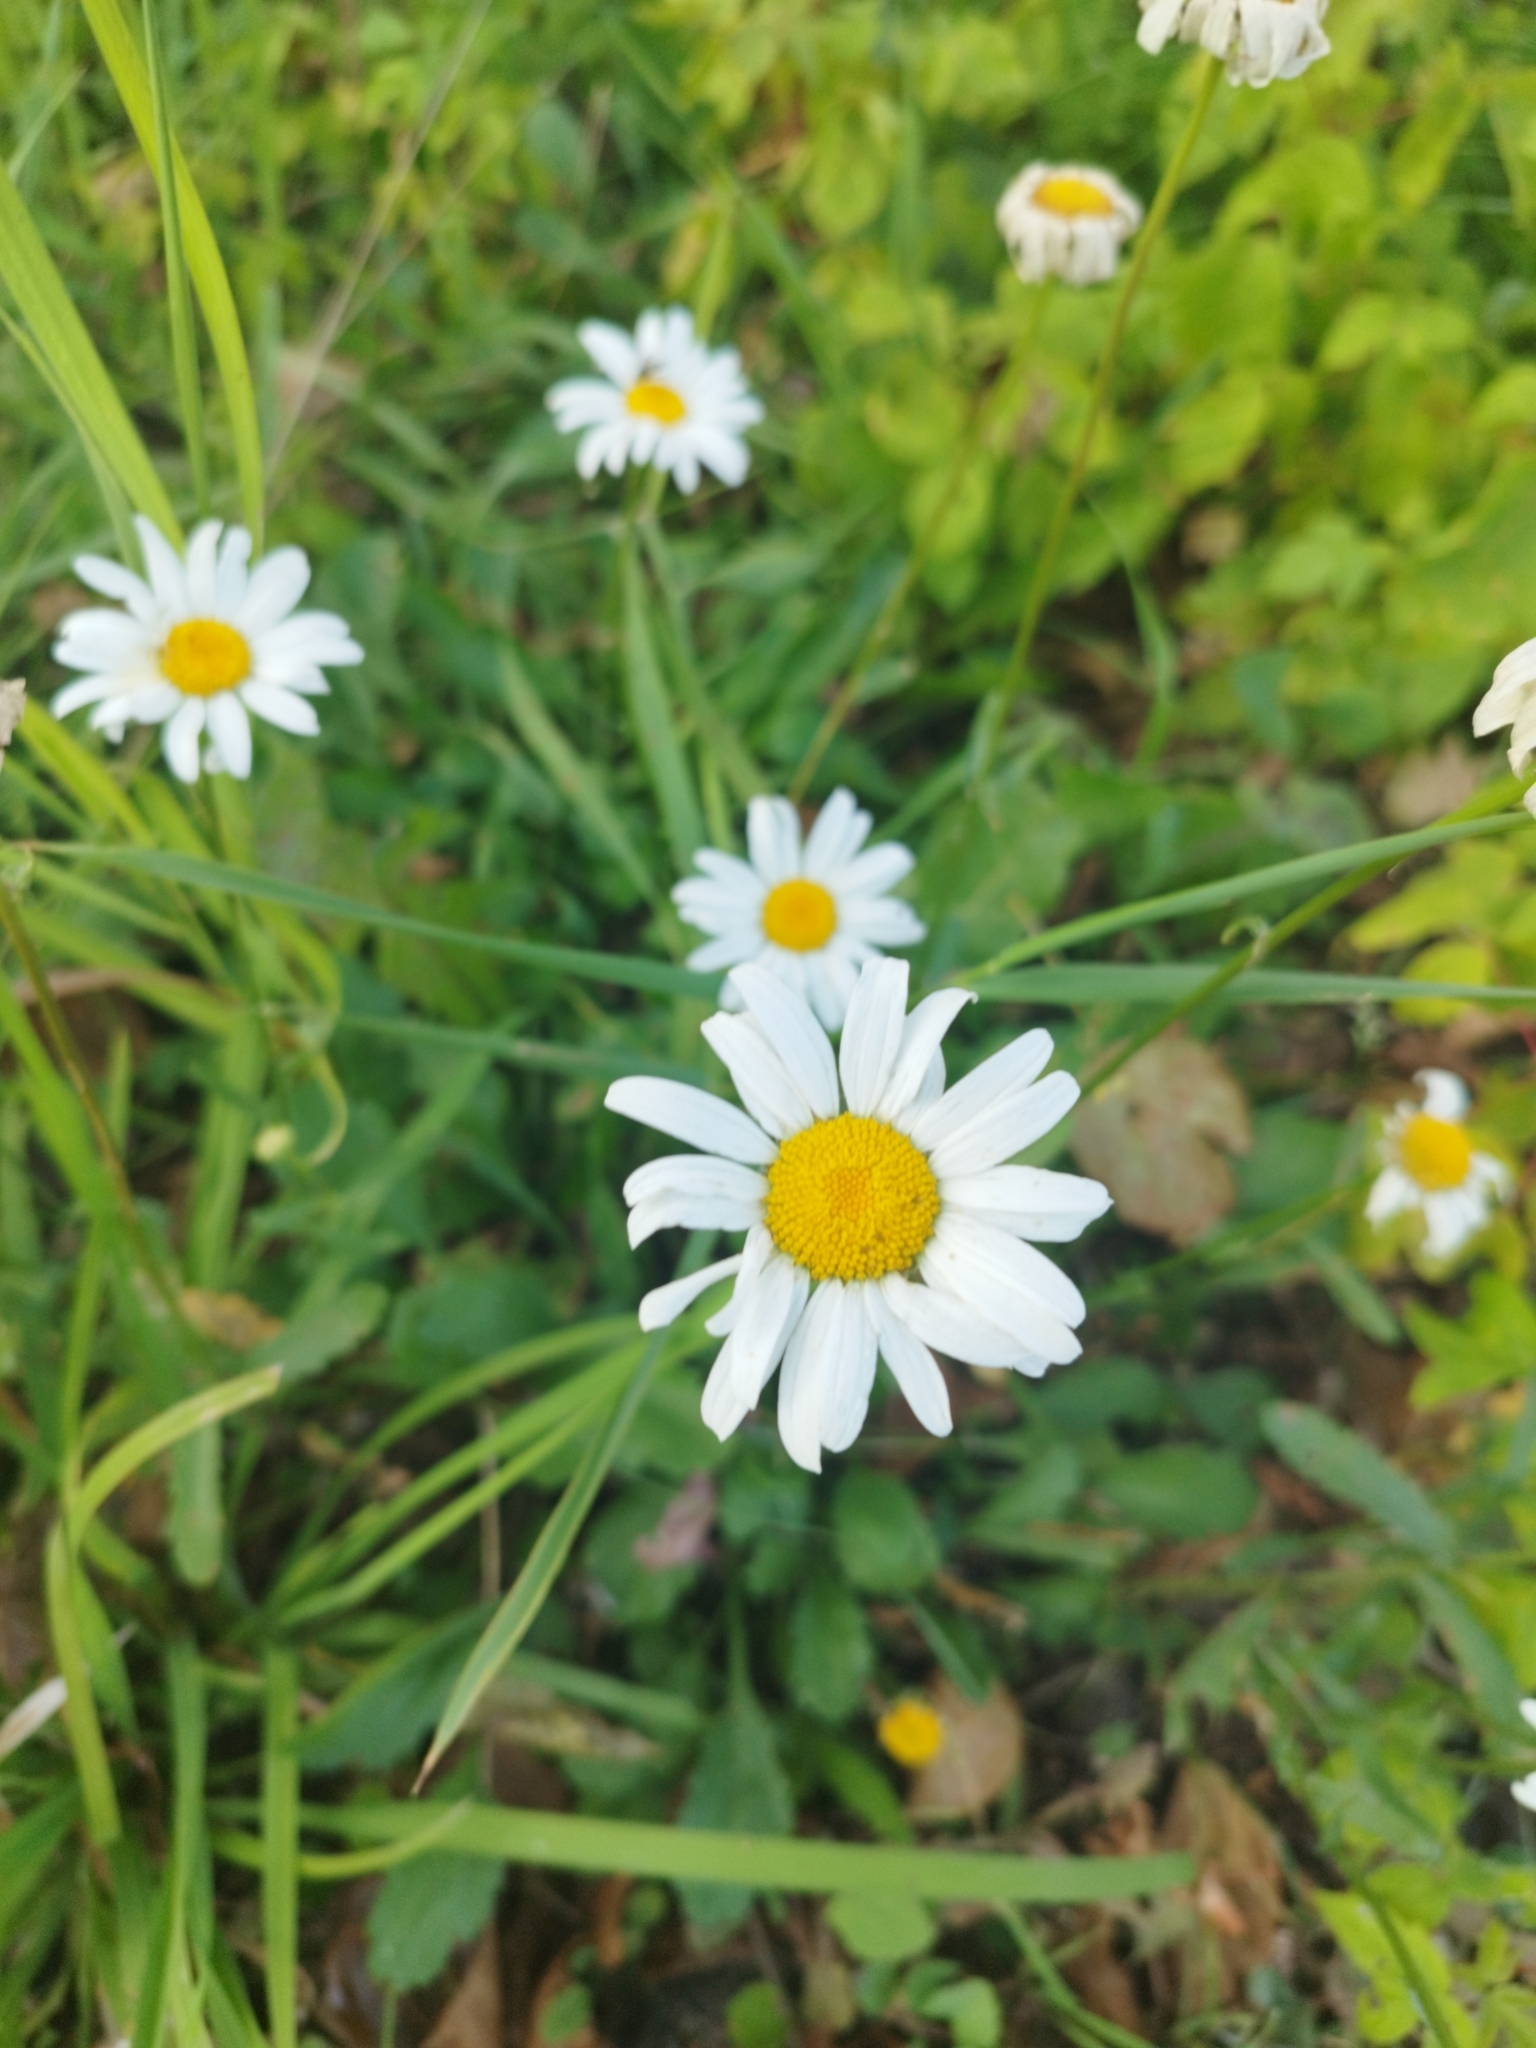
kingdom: Plantae
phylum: Tracheophyta
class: Magnoliopsida
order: Asterales
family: Asteraceae
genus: Leucanthemum
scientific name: Leucanthemum vulgare
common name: Oxeye daisy
